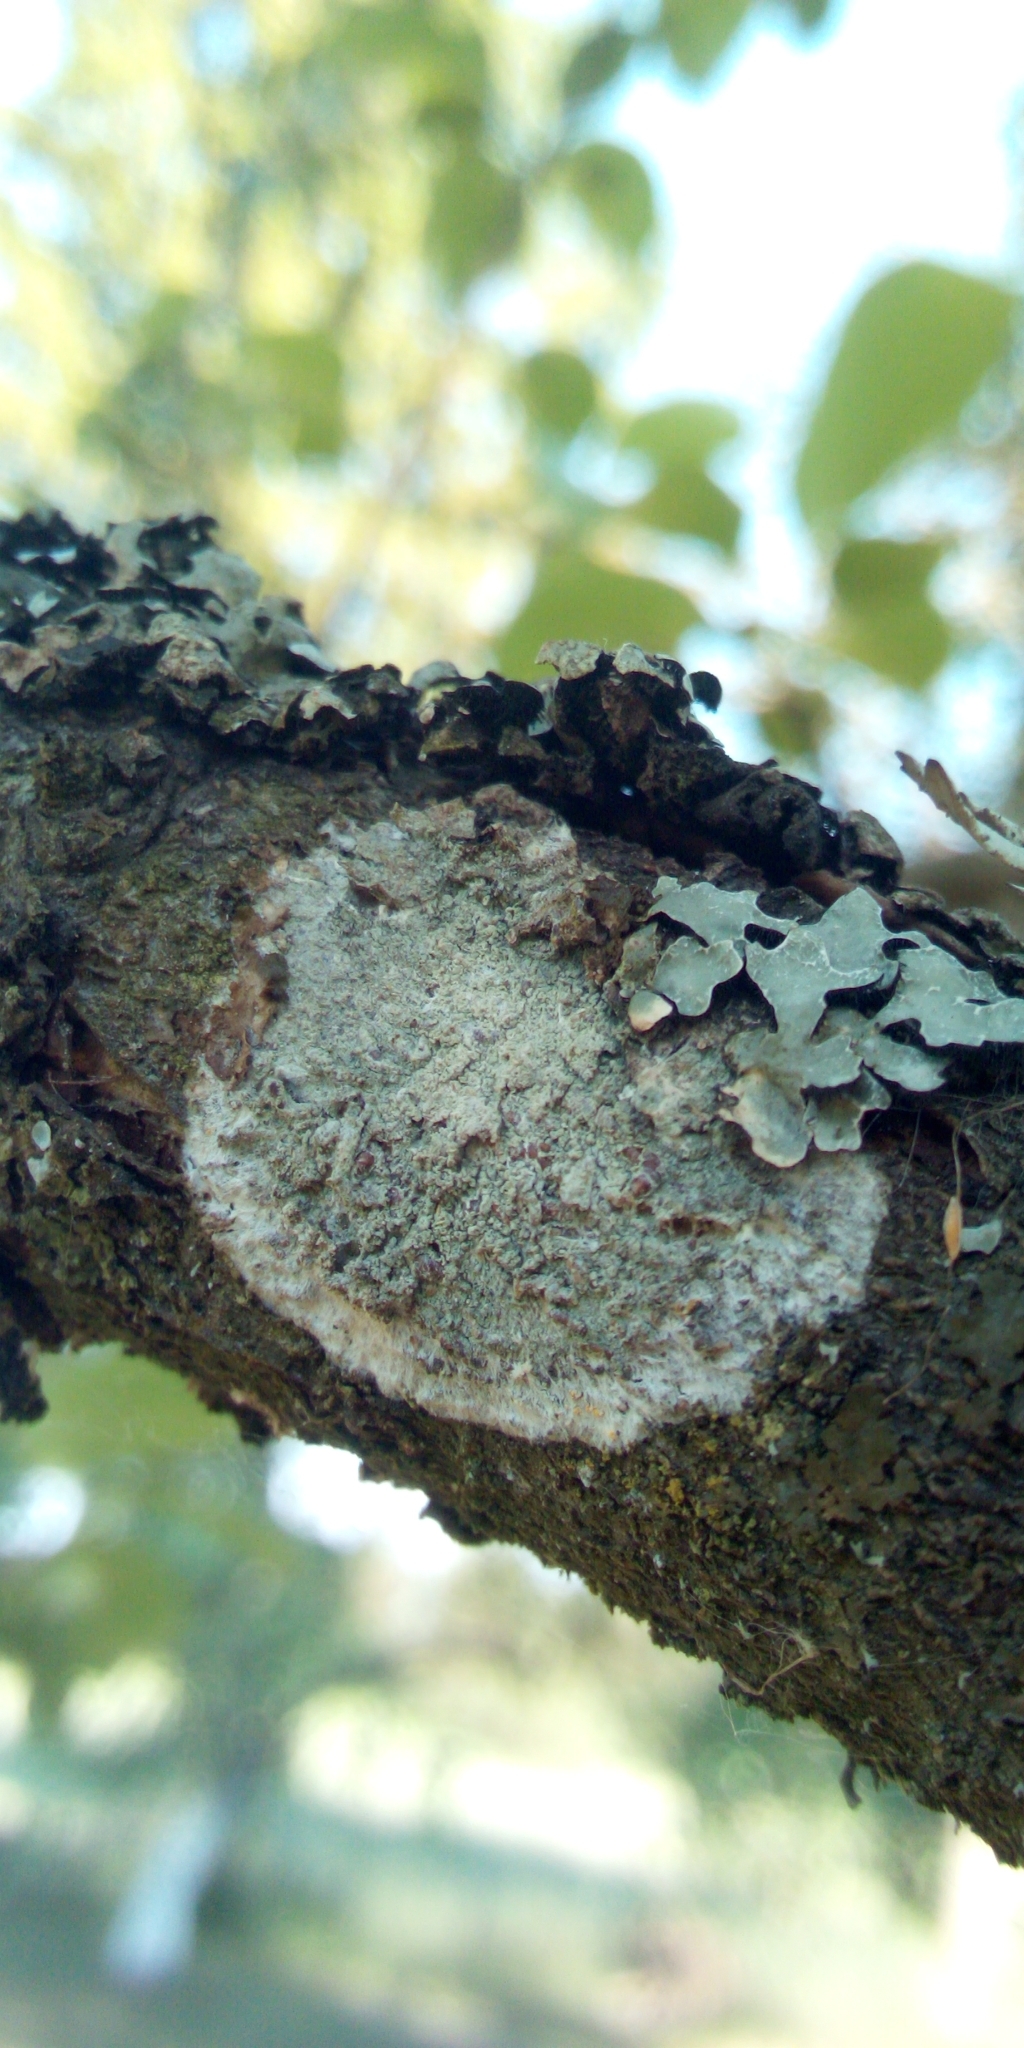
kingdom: Fungi
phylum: Ascomycota
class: Lecanoromycetes
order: Ostropales
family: Phlyctidaceae
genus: Phlyctis
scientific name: Phlyctis argena
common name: Whitewash lichen
